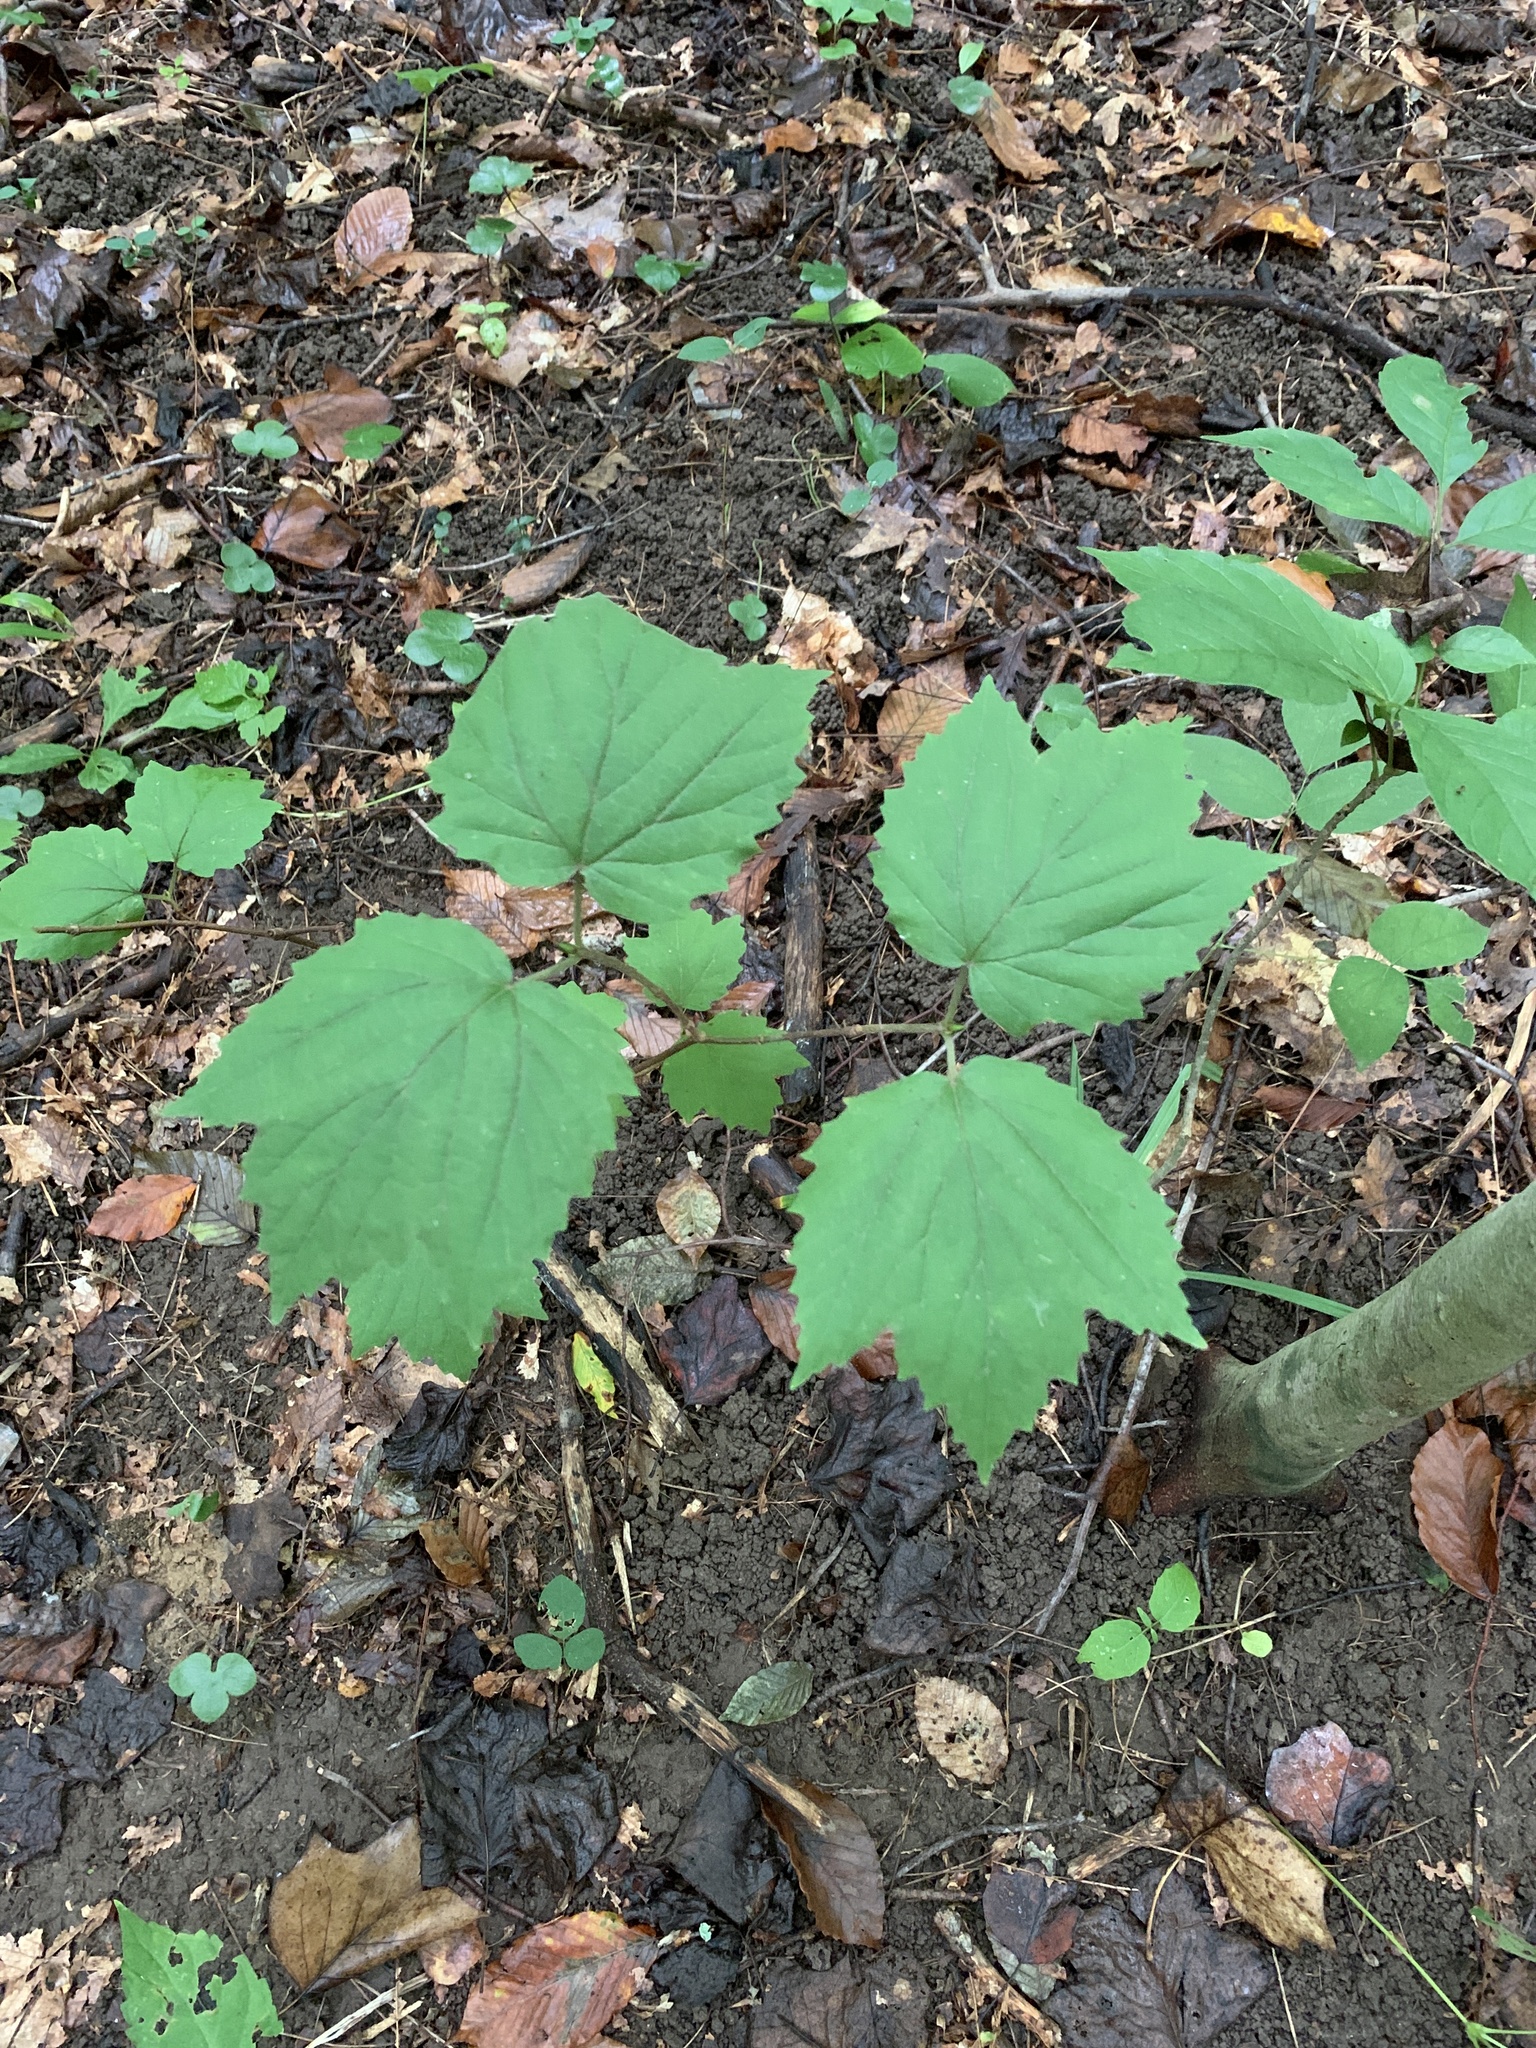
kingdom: Plantae
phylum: Tracheophyta
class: Magnoliopsida
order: Dipsacales
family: Viburnaceae
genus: Viburnum
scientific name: Viburnum acerifolium
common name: Dockmackie
